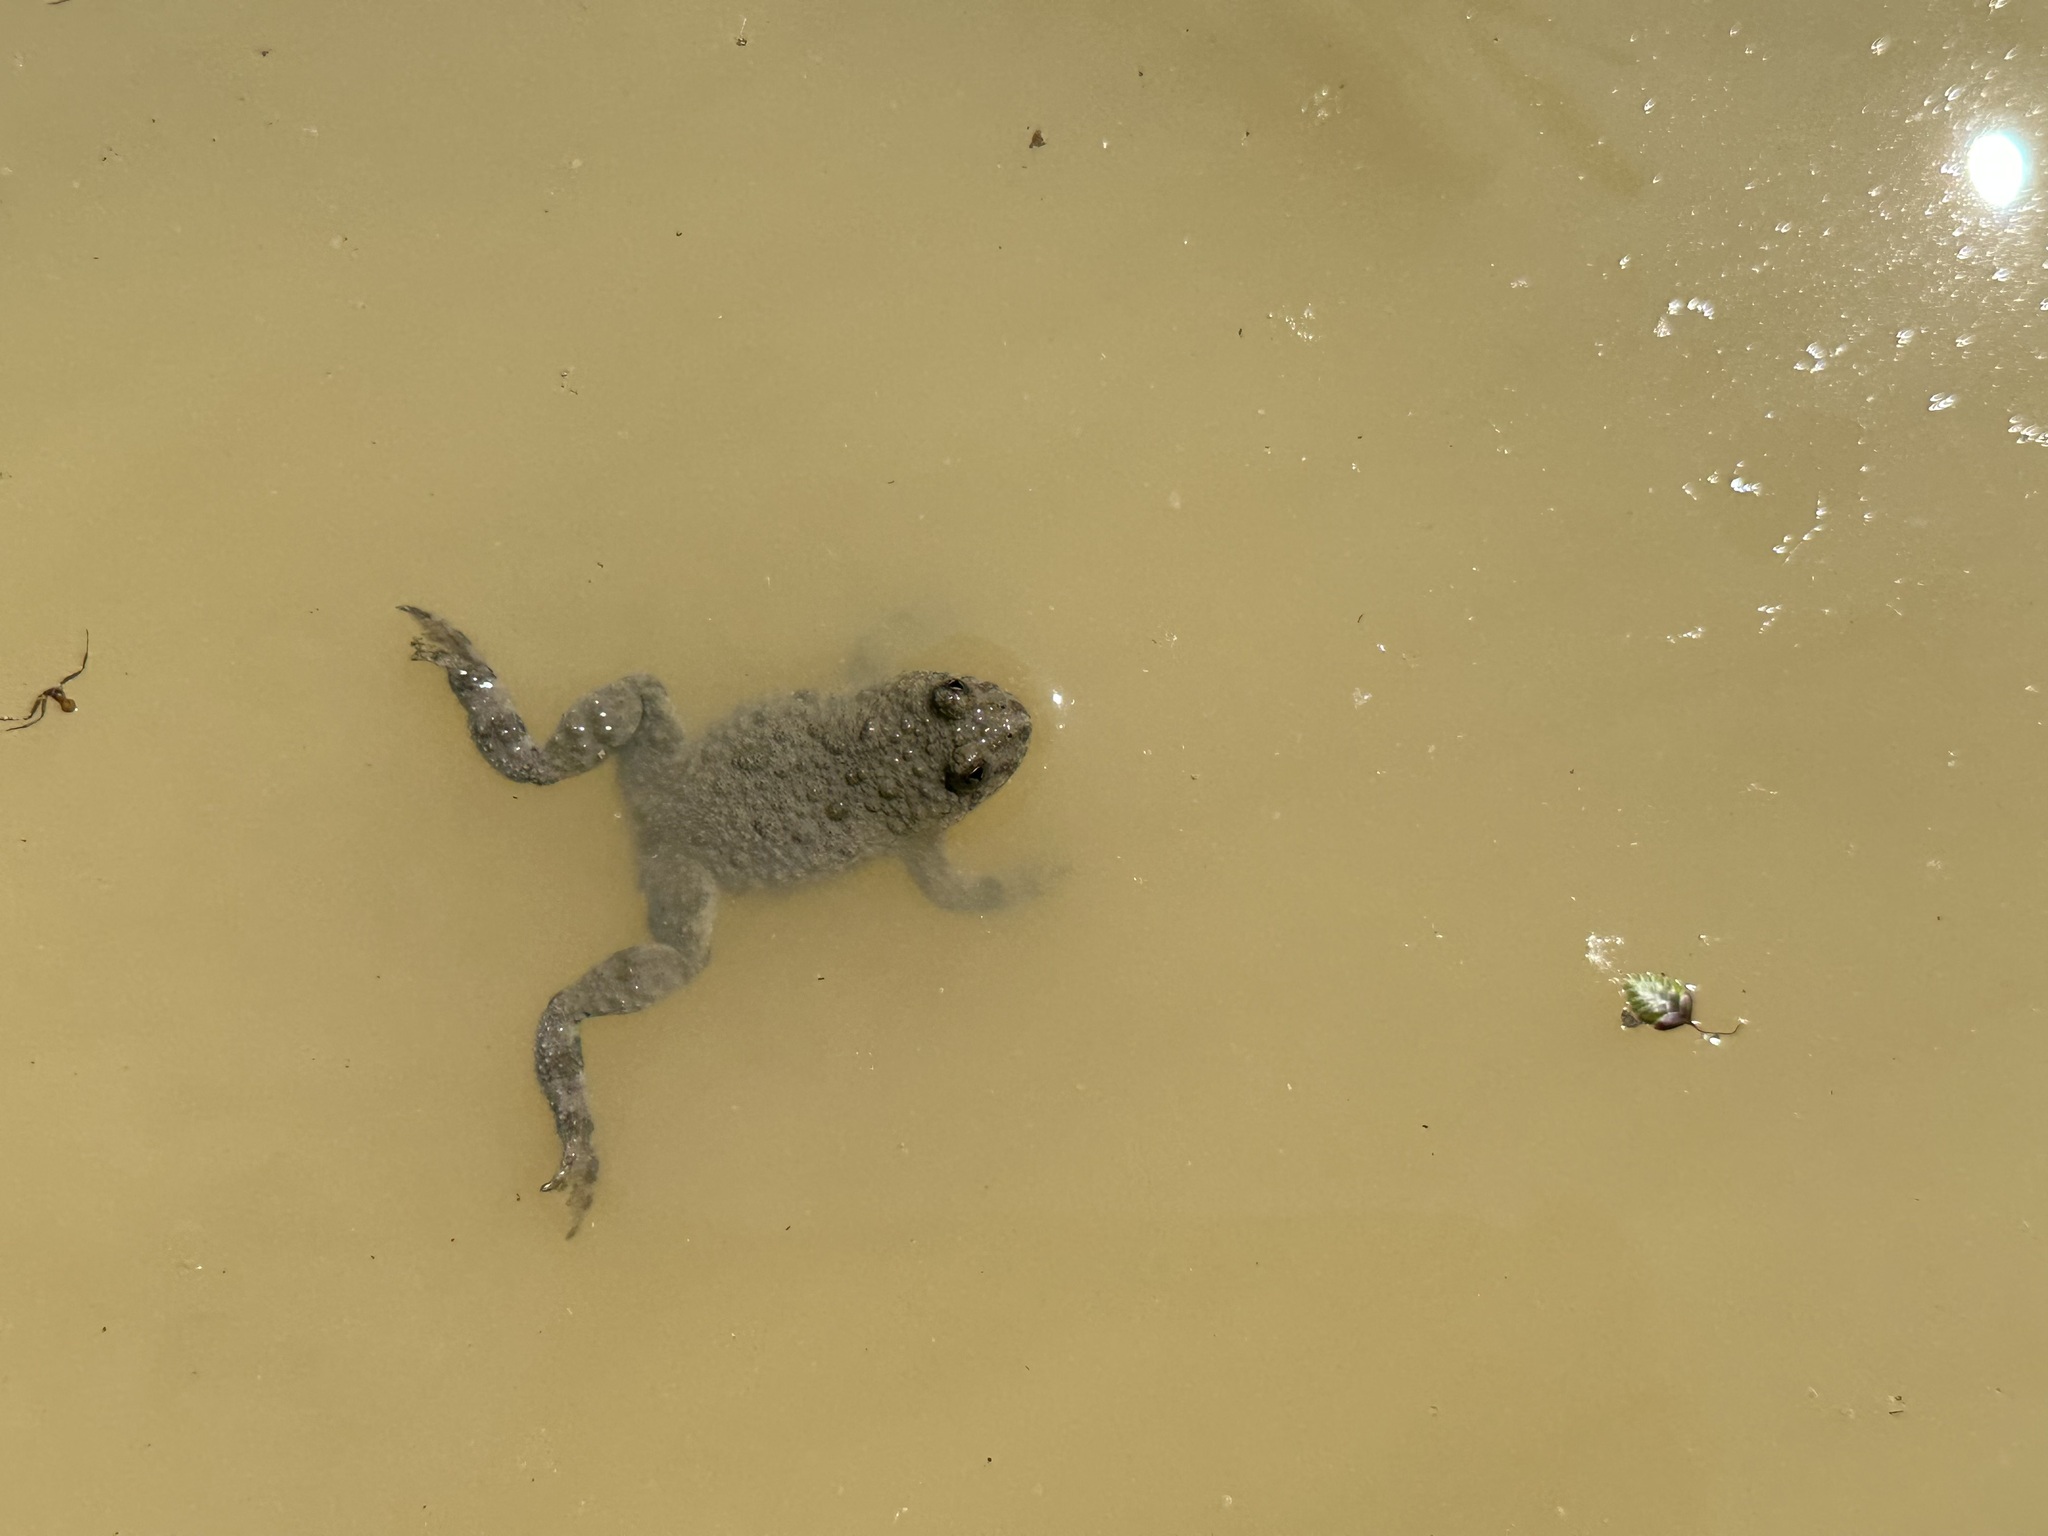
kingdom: Animalia
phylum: Chordata
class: Amphibia
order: Anura
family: Bombinatoridae
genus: Bombina
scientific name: Bombina variegata
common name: Yellow-bellied toad
